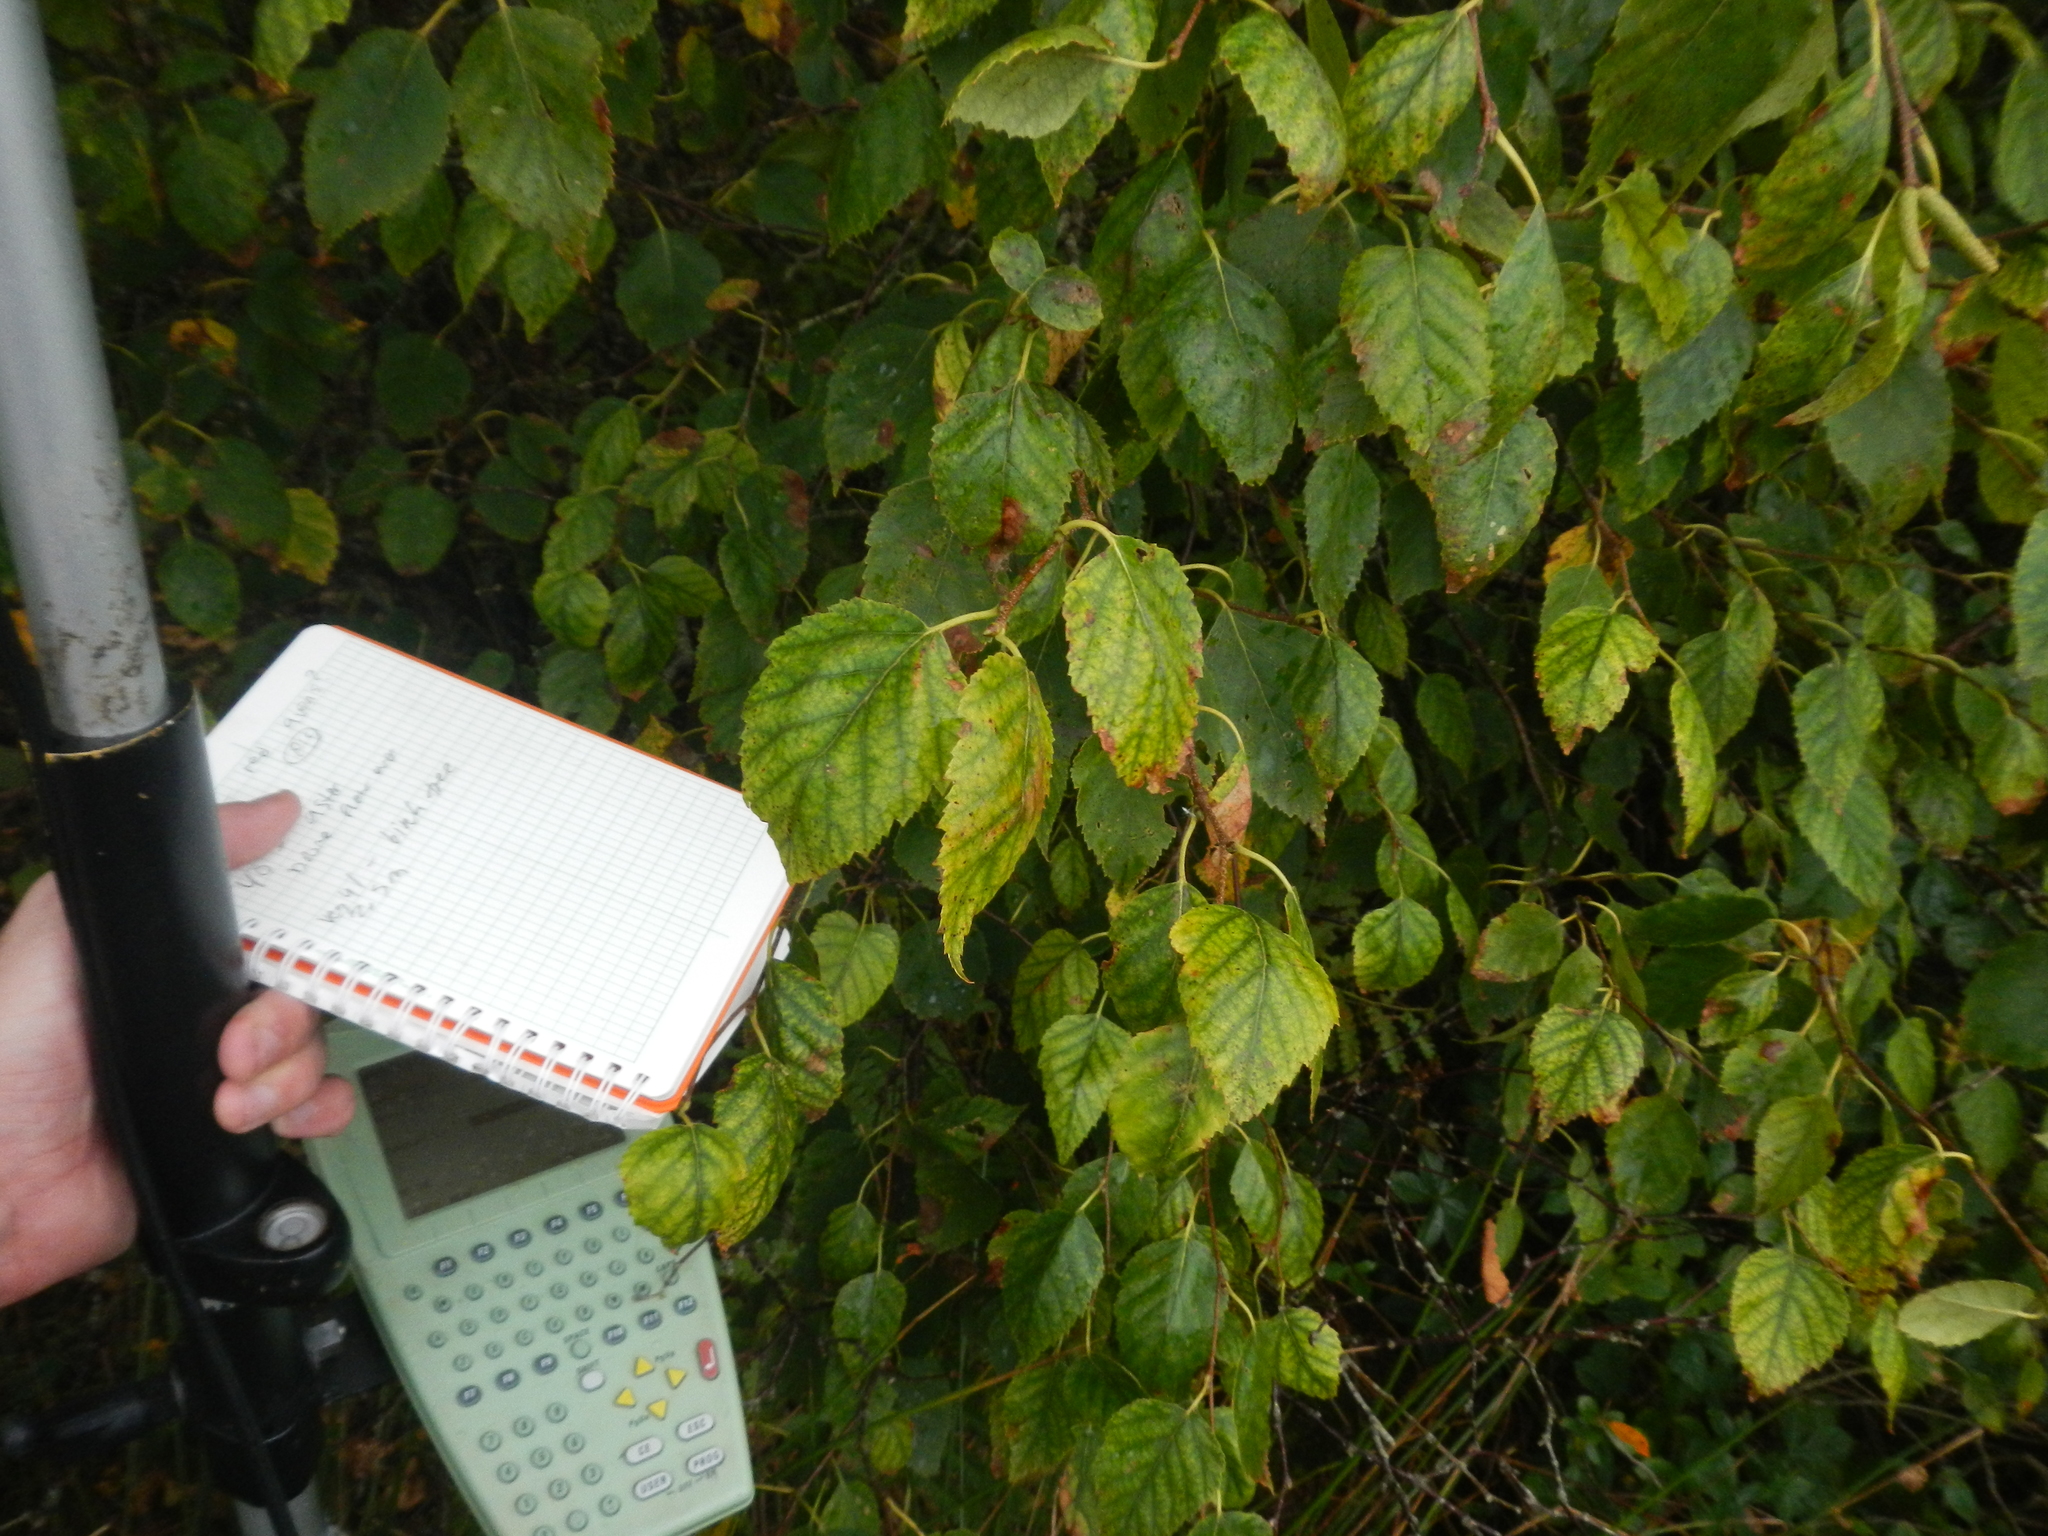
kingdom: Plantae
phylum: Tracheophyta
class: Magnoliopsida
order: Fagales
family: Betulaceae
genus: Betula
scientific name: Betula papyrifera
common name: Paper birch
